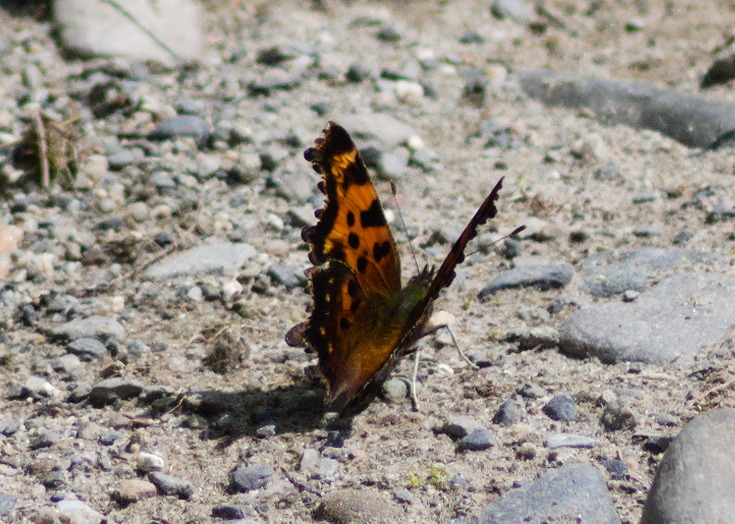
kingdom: Animalia
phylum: Arthropoda
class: Insecta
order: Lepidoptera
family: Nymphalidae
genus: Polygonia
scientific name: Polygonia faunus
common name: Green comma
